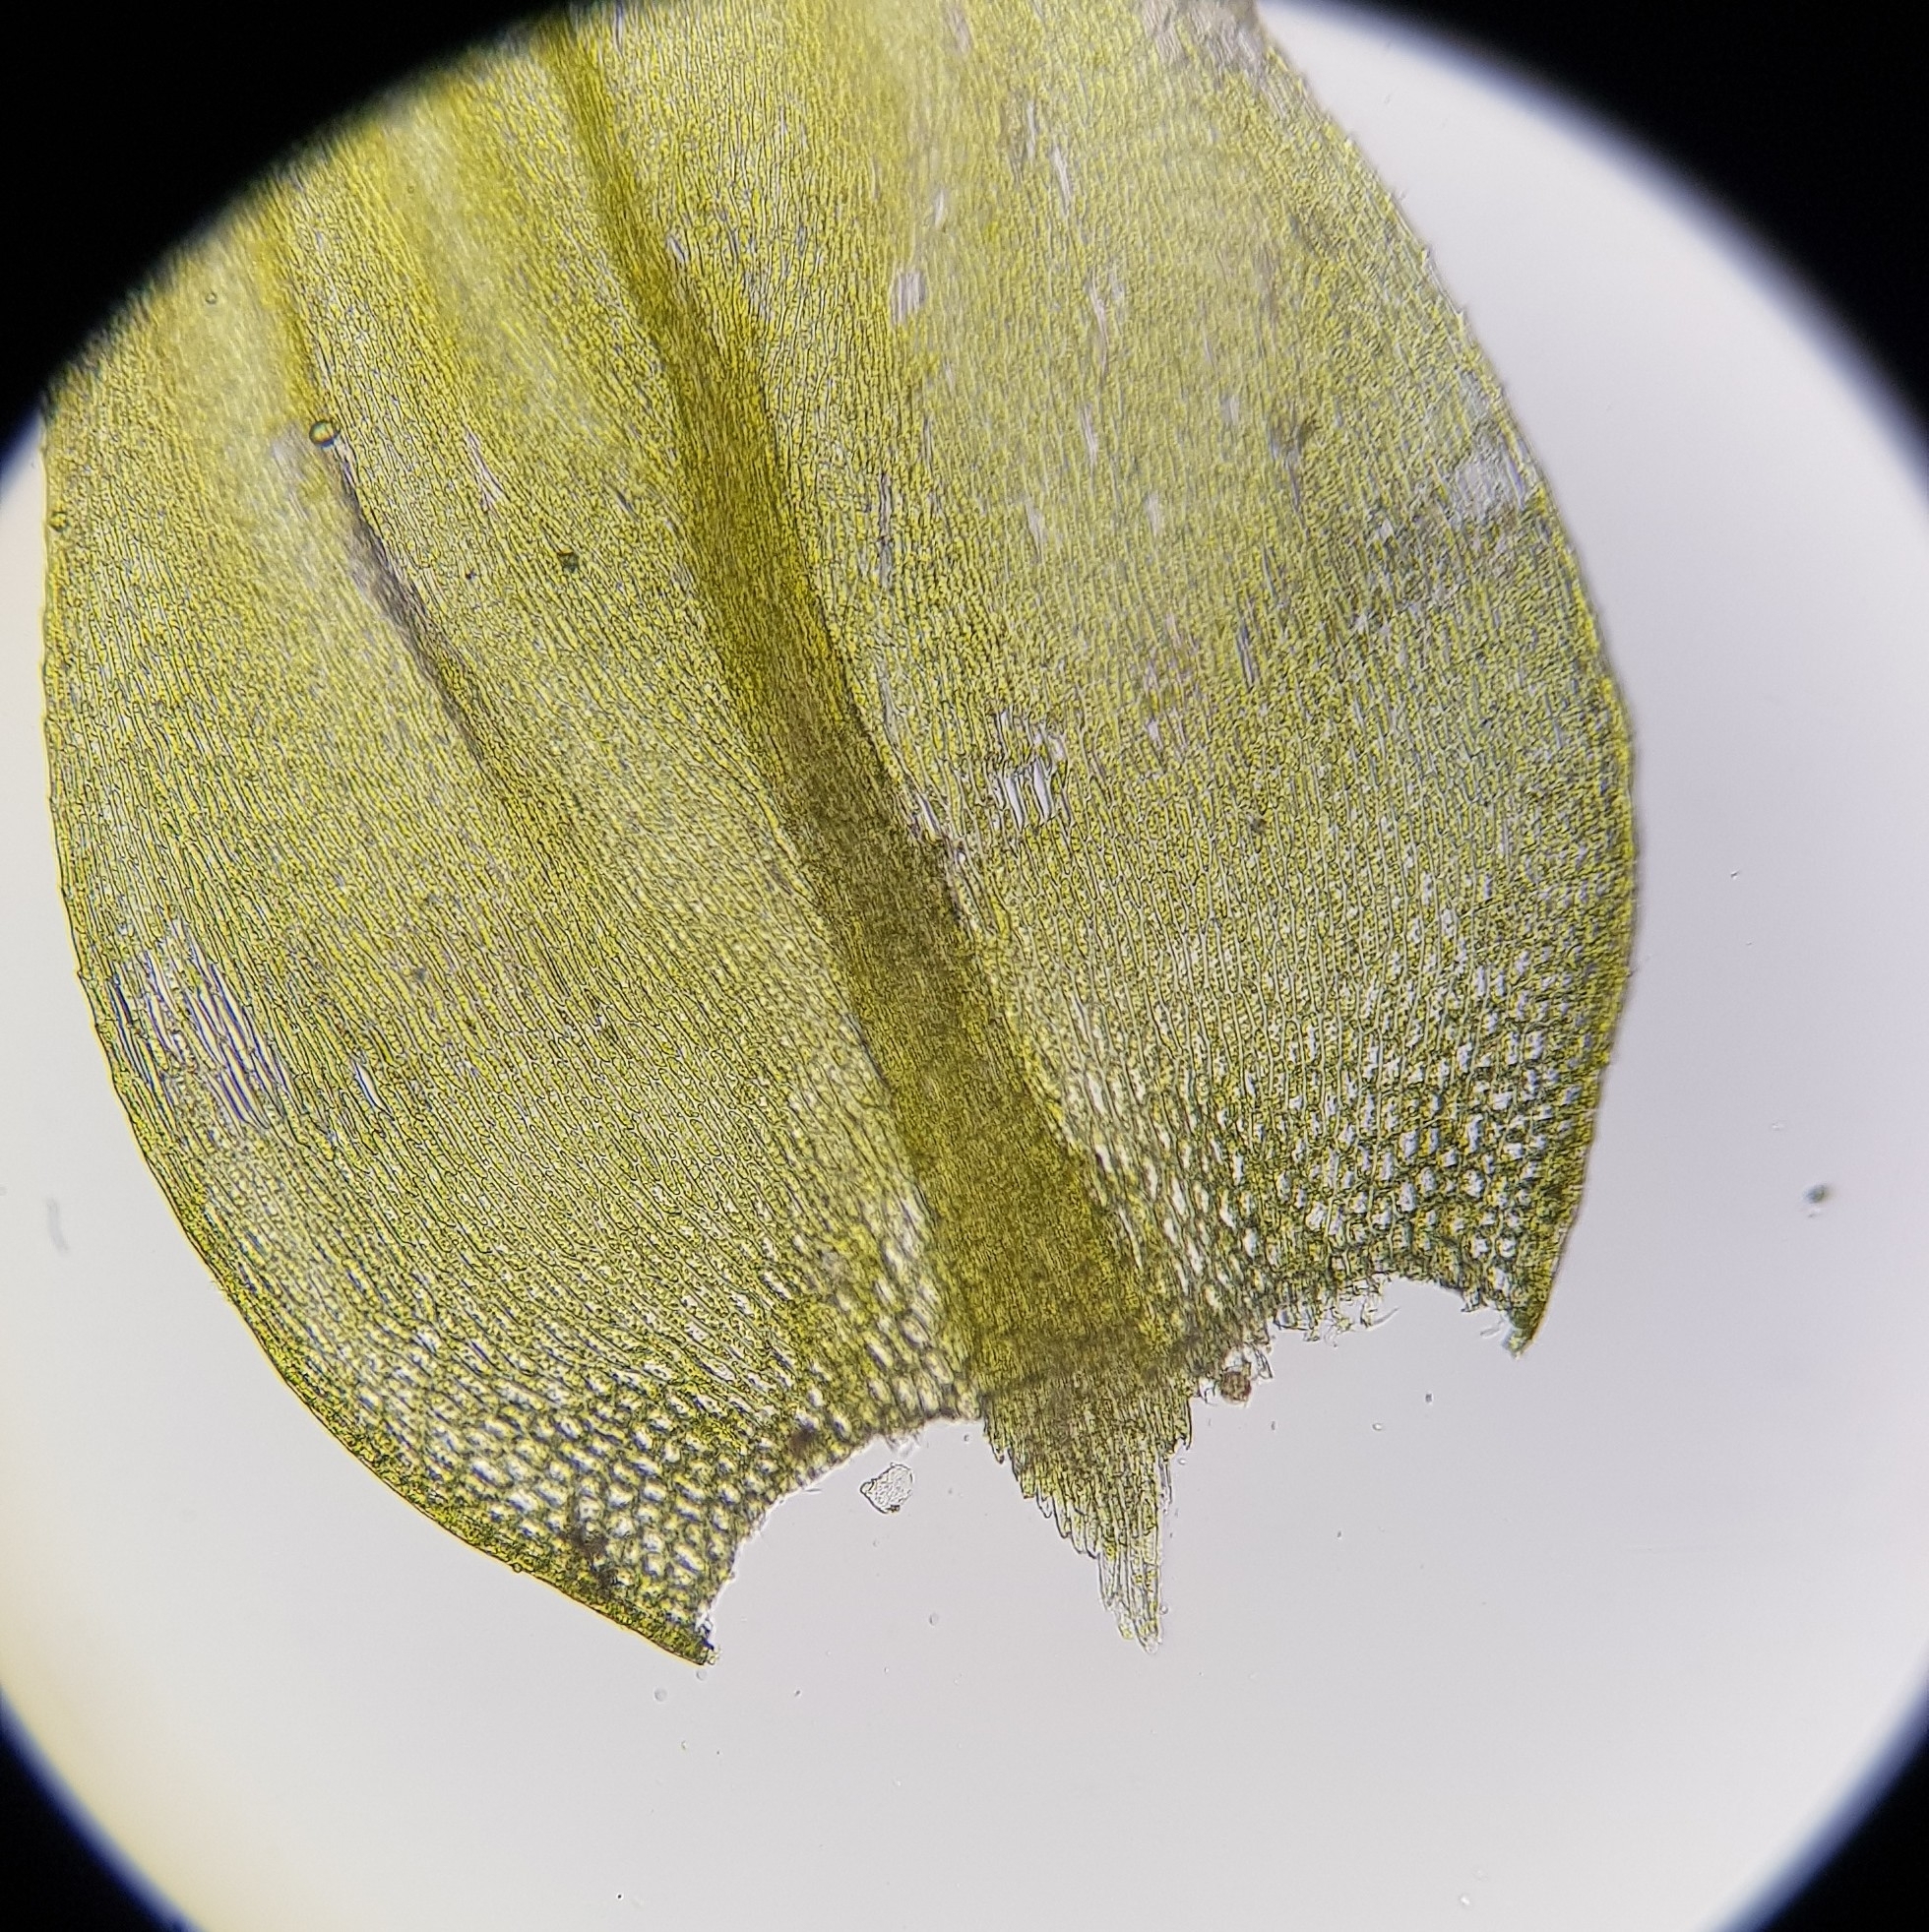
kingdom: Plantae
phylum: Bryophyta
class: Bryopsida
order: Hypnales
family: Brachytheciaceae
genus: Cirriphyllum
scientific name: Cirriphyllum crassinervium
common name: Beech feather-moss
